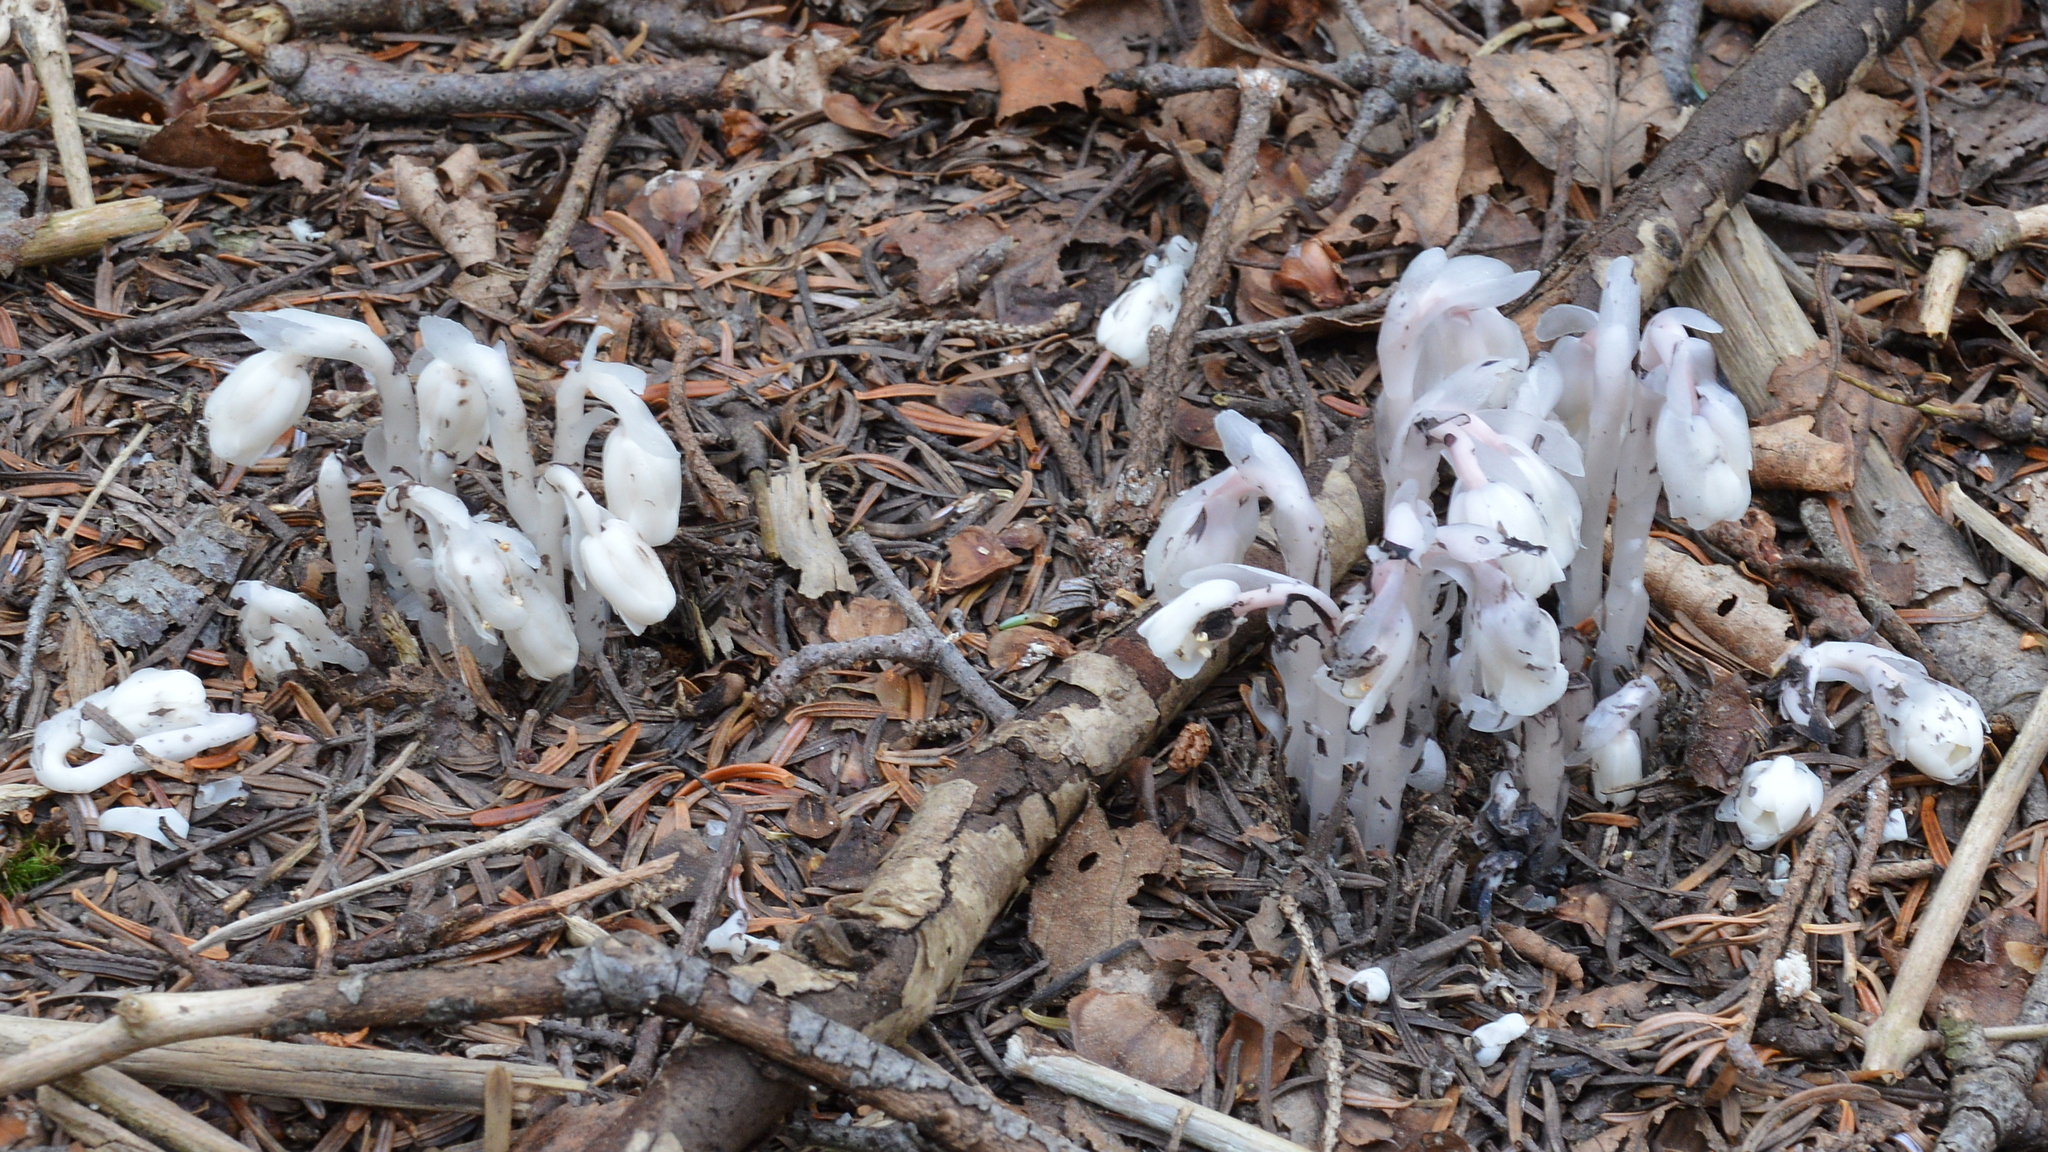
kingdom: Plantae
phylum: Tracheophyta
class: Magnoliopsida
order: Ericales
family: Ericaceae
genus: Monotropa
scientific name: Monotropa uniflora
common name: Convulsion root
